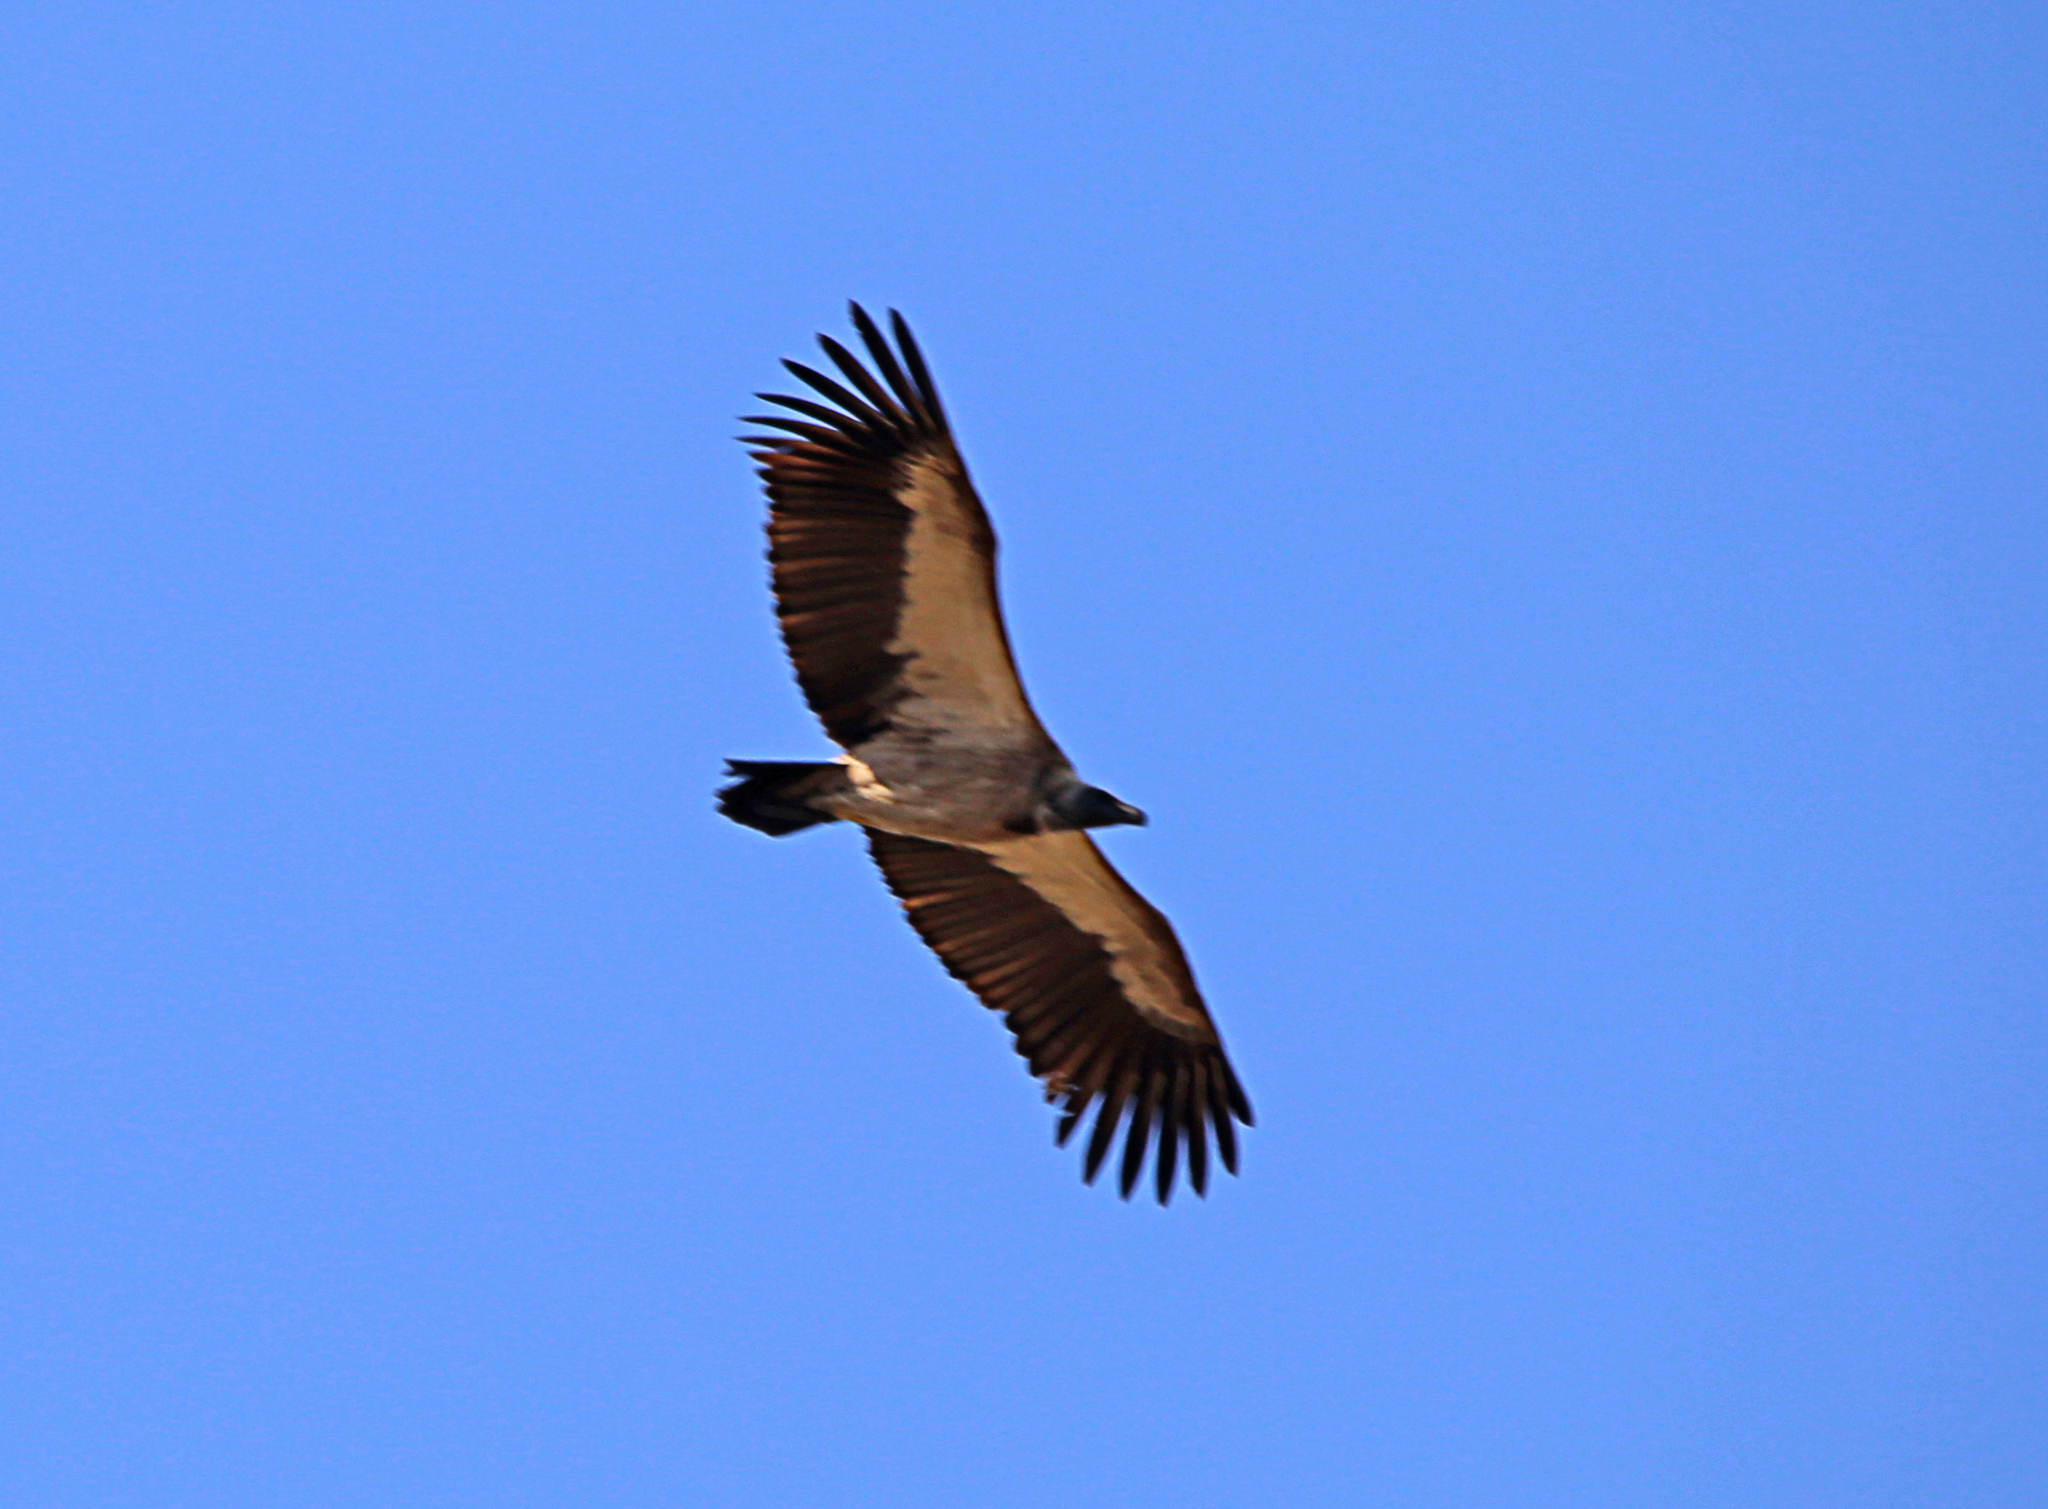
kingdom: Animalia
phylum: Chordata
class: Aves
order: Accipitriformes
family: Accipitridae
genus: Gyps
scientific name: Gyps africanus
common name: White-backed vulture
